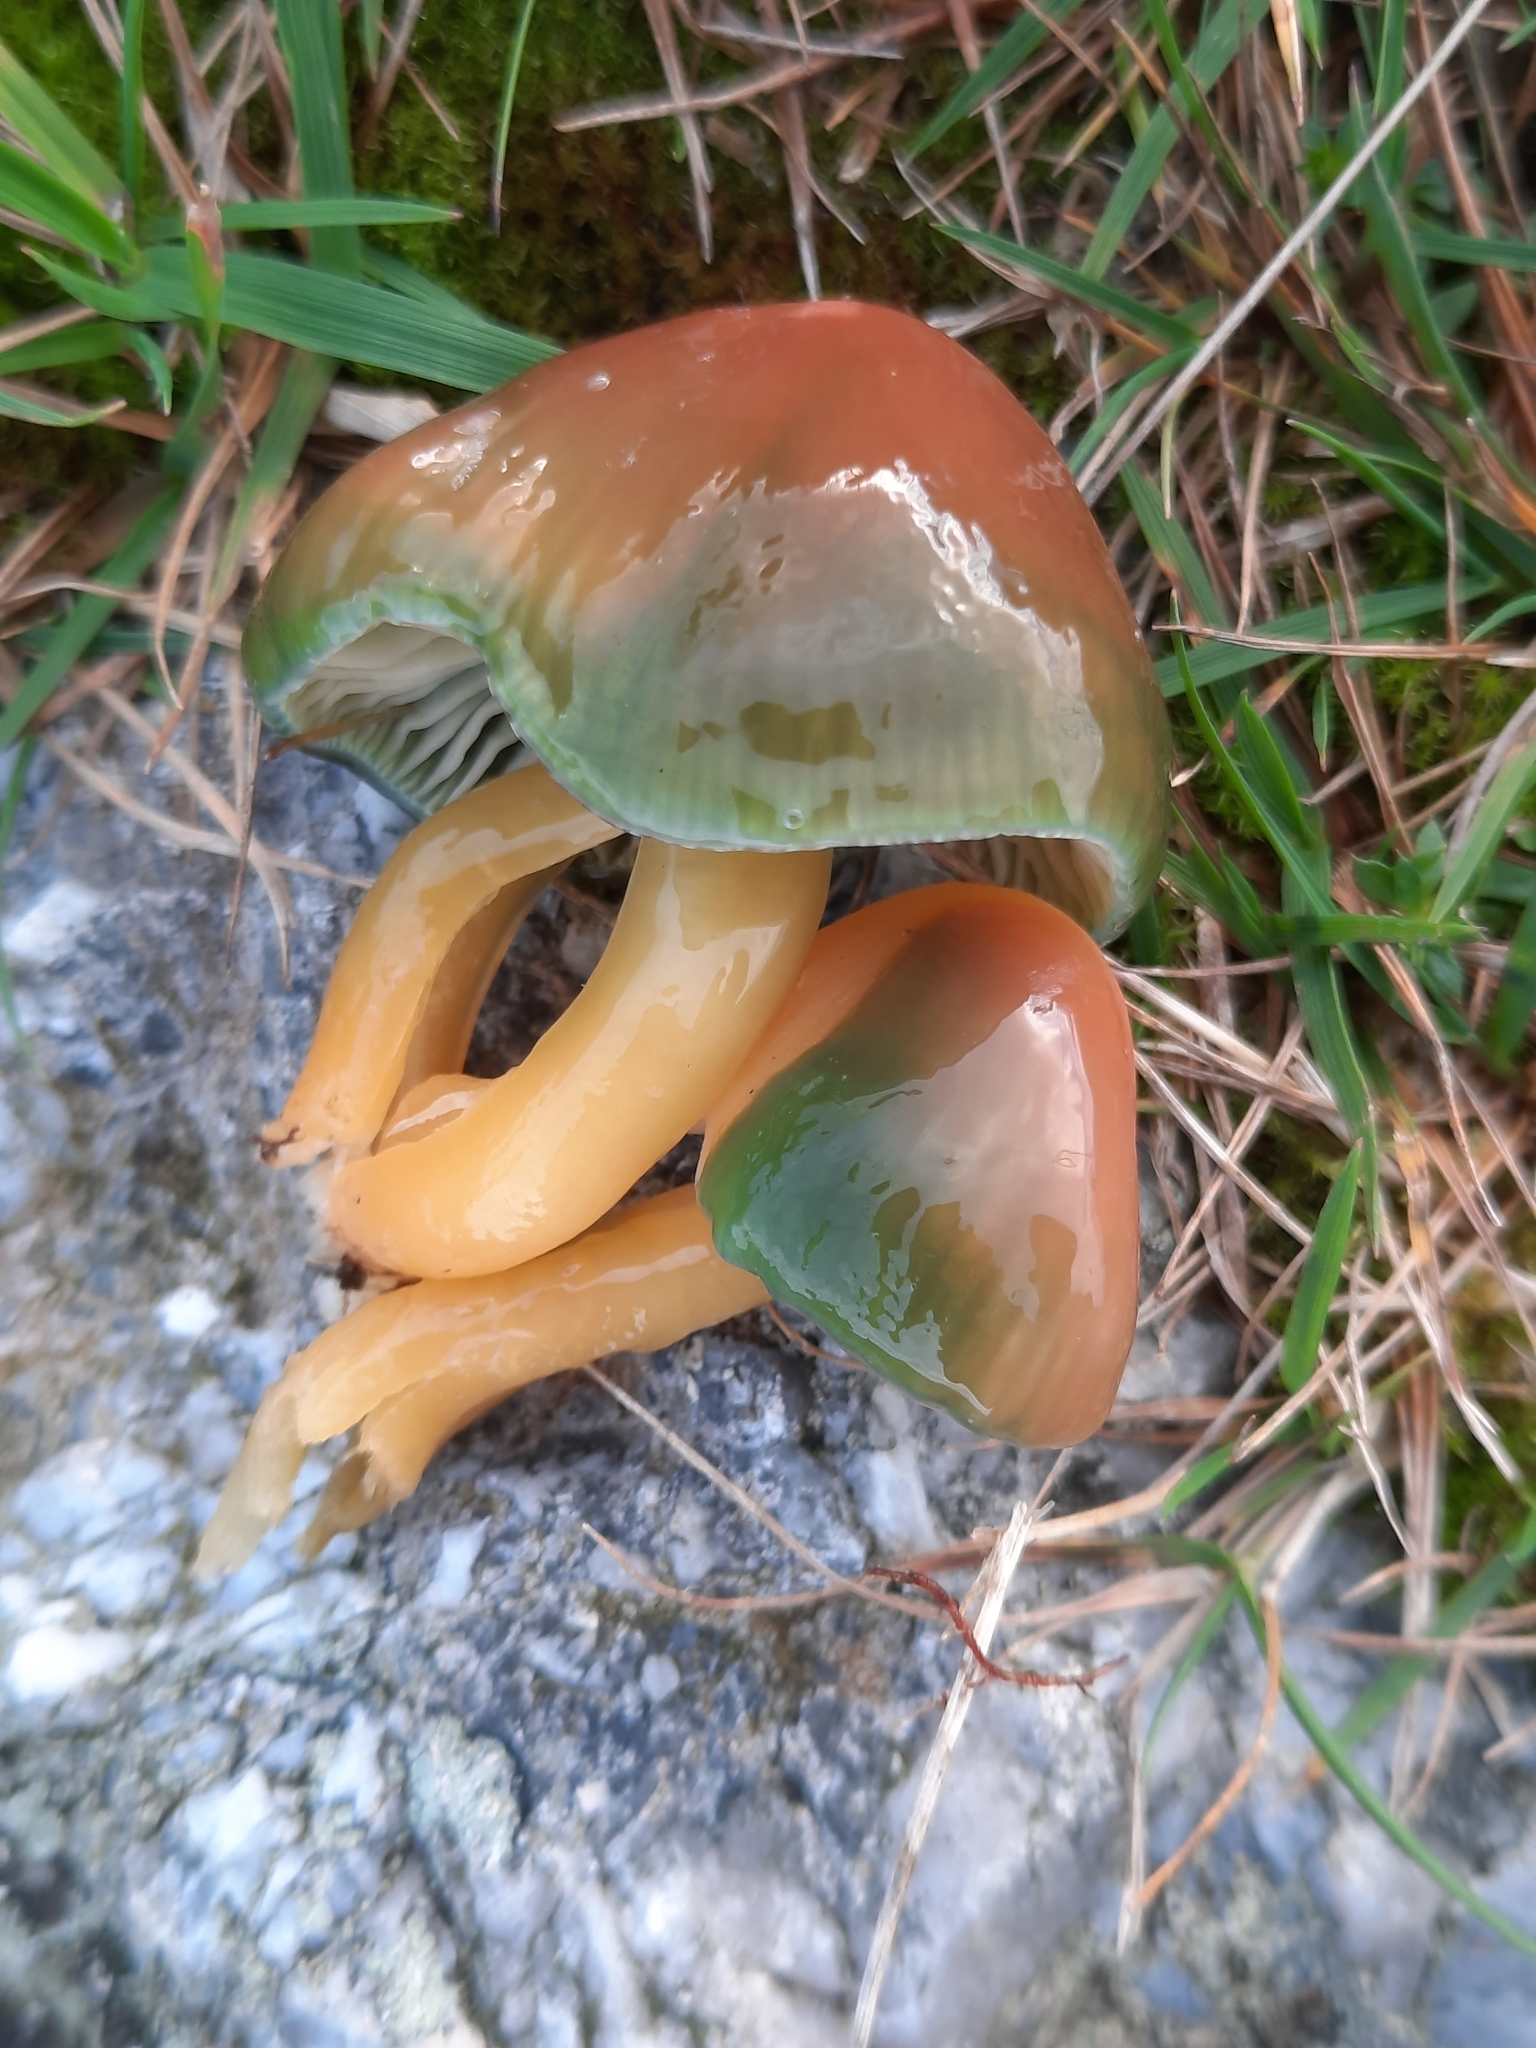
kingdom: Fungi
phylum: Basidiomycota
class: Agaricomycetes
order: Agaricales
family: Hygrophoraceae
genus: Gliophorus
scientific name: Gliophorus psittacinus
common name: Parrot wax-cap
